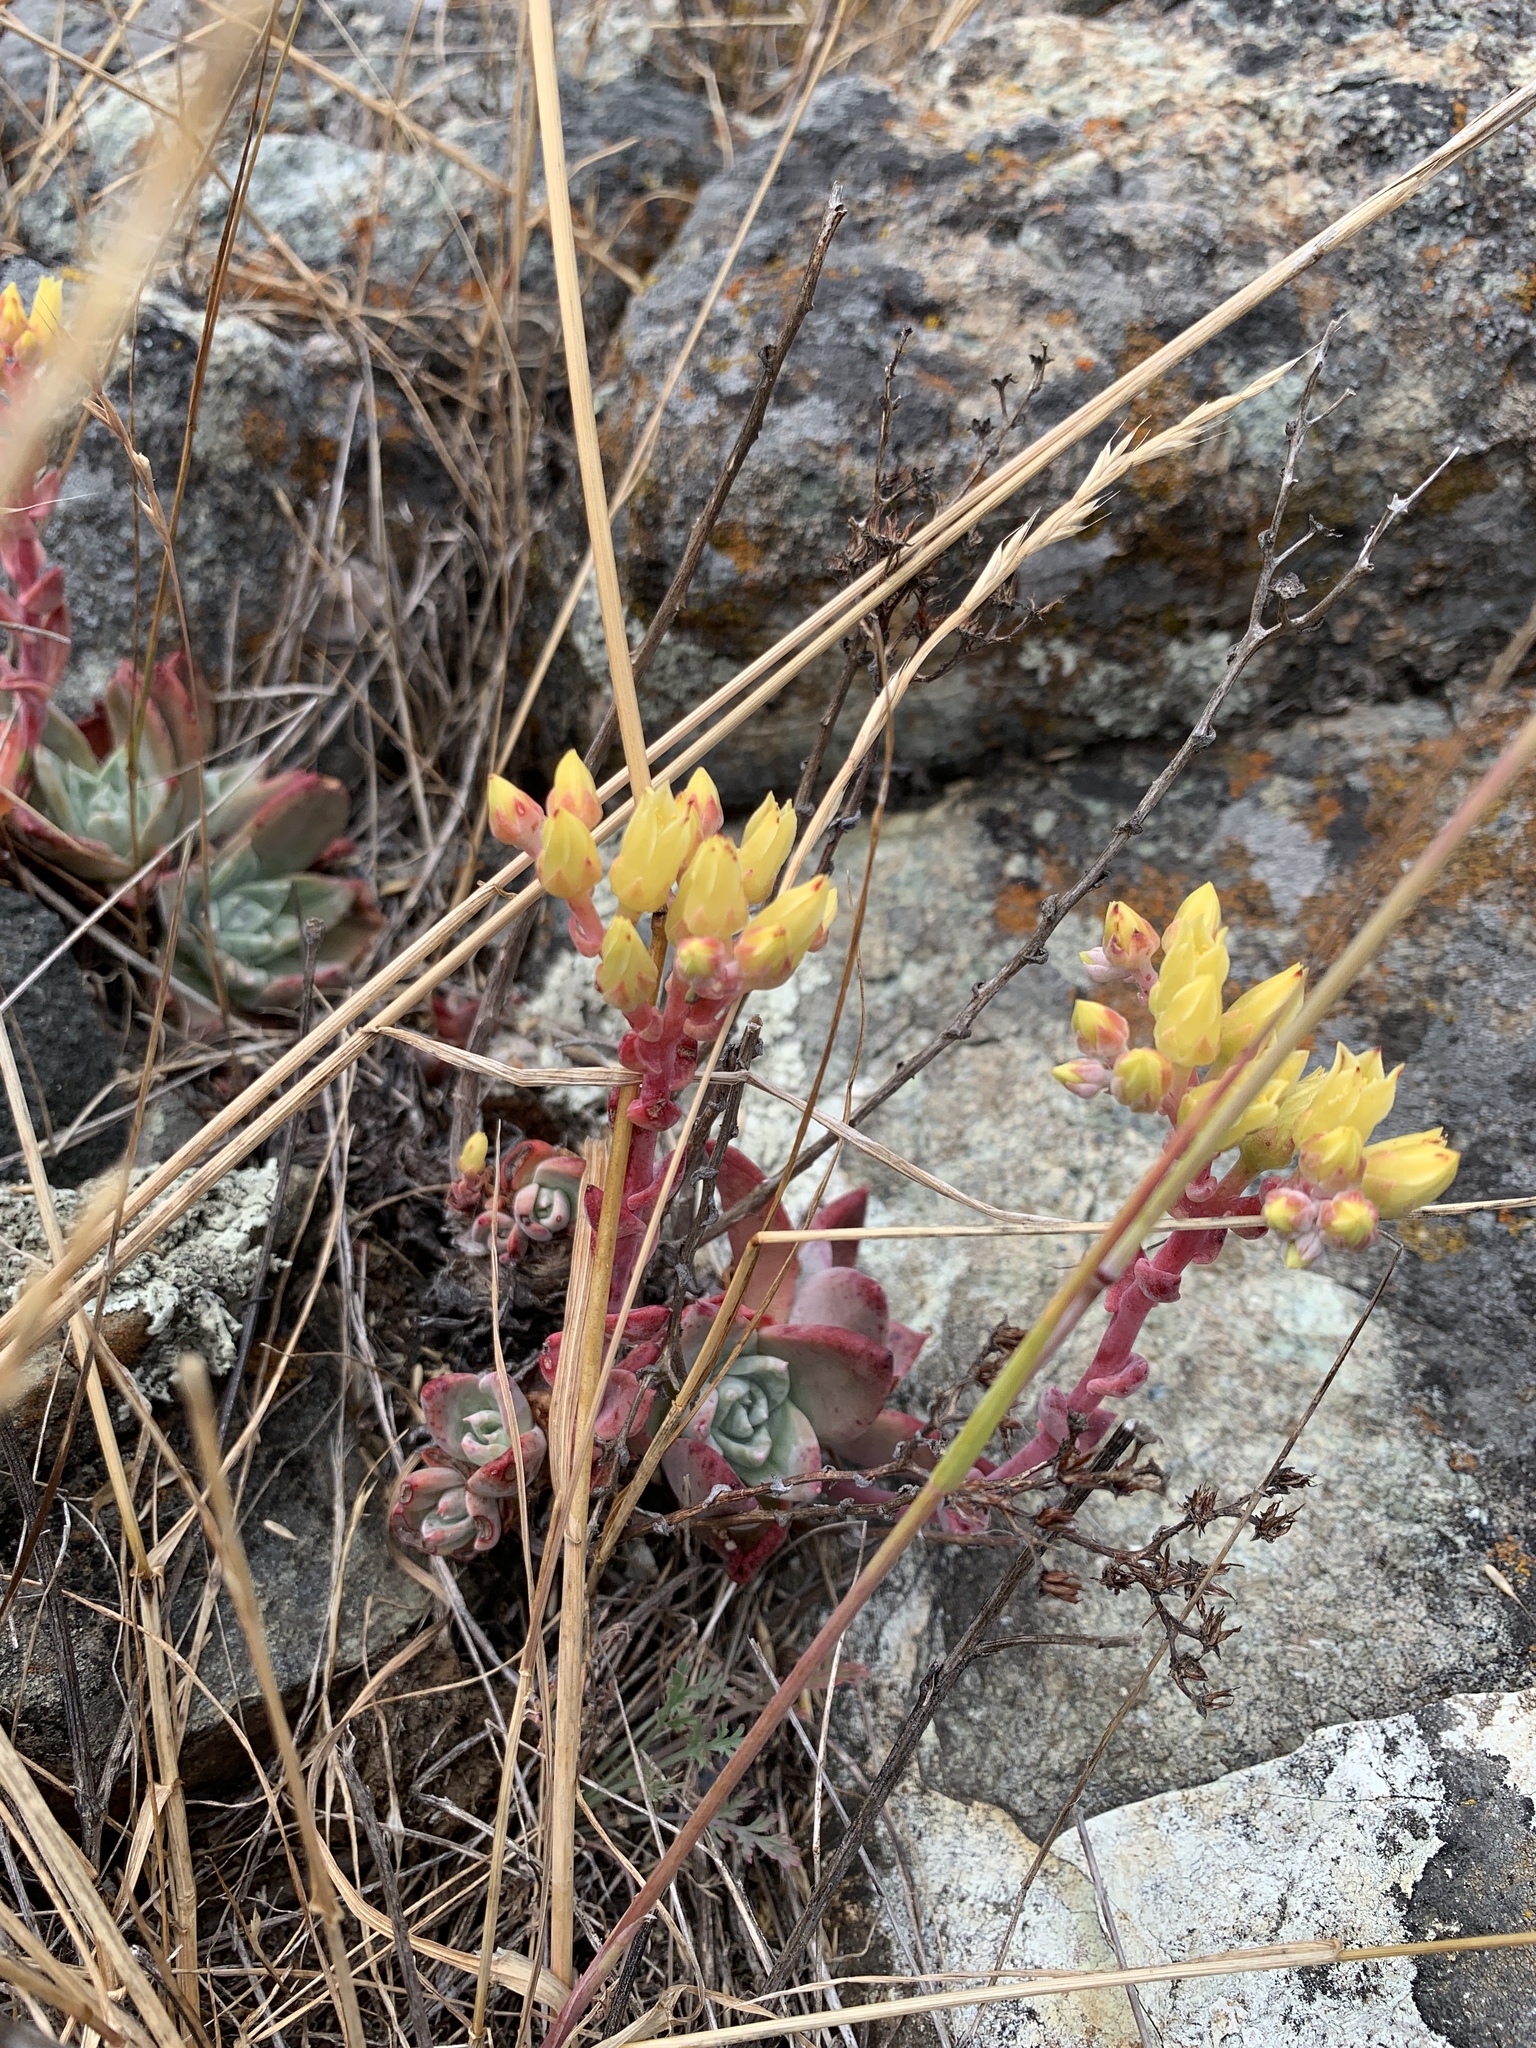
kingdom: Plantae
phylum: Tracheophyta
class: Magnoliopsida
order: Saxifragales
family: Crassulaceae
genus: Dudleya
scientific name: Dudleya farinosa
